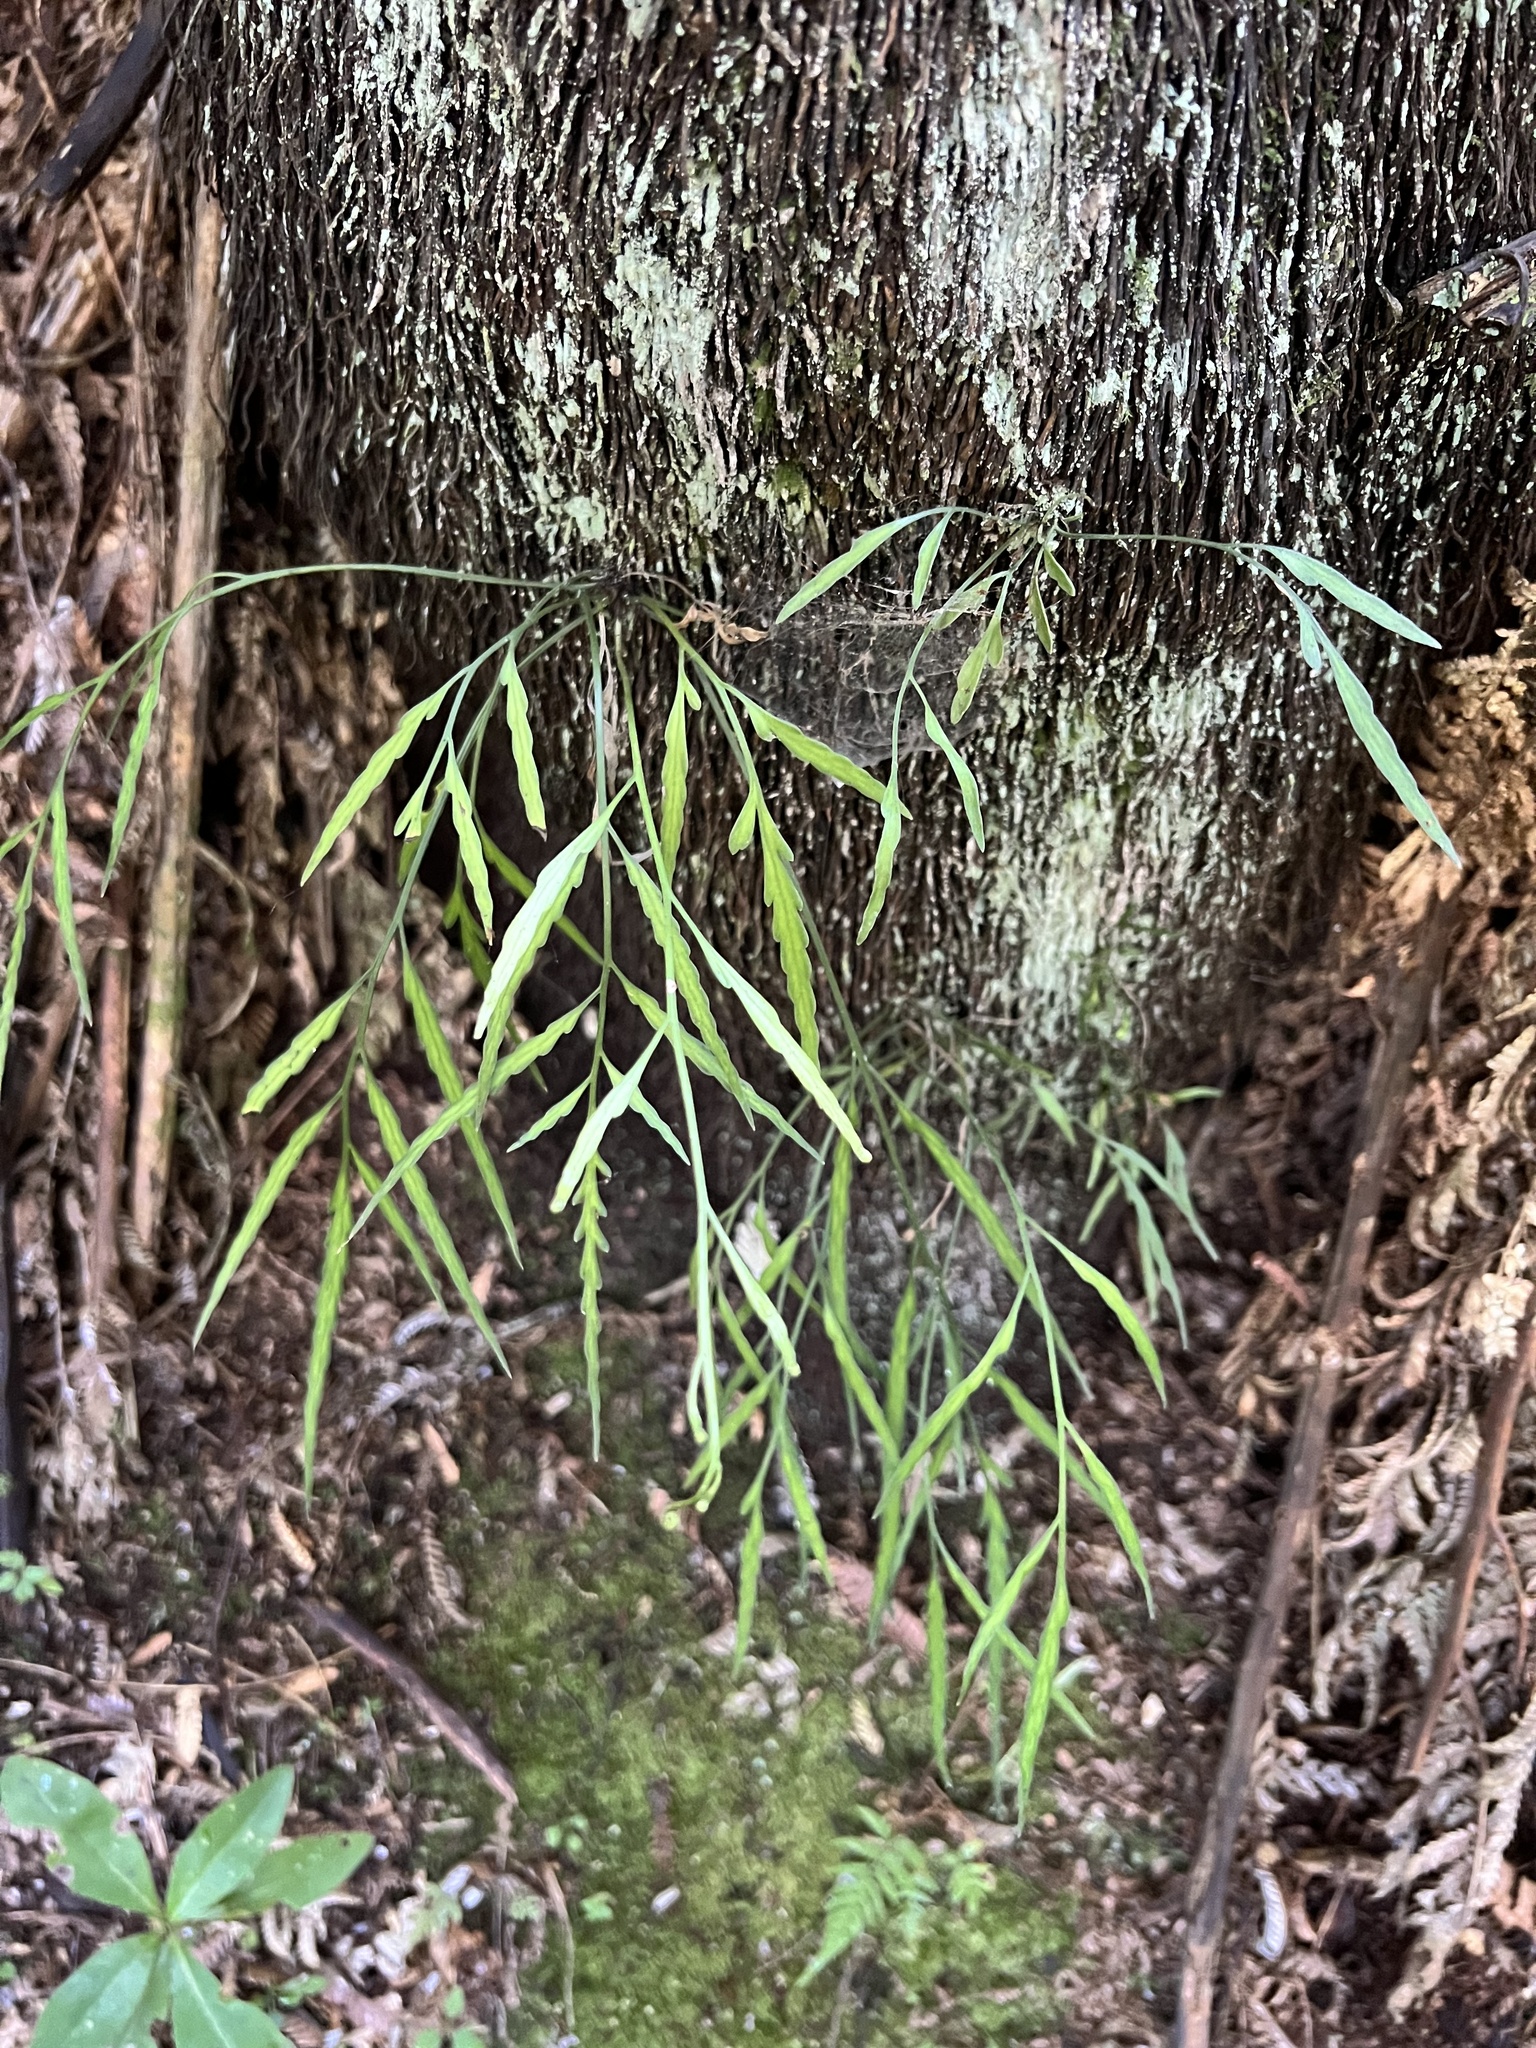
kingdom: Plantae
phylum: Tracheophyta
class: Polypodiopsida
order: Polypodiales
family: Aspleniaceae
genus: Asplenium
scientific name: Asplenium flaccidum
